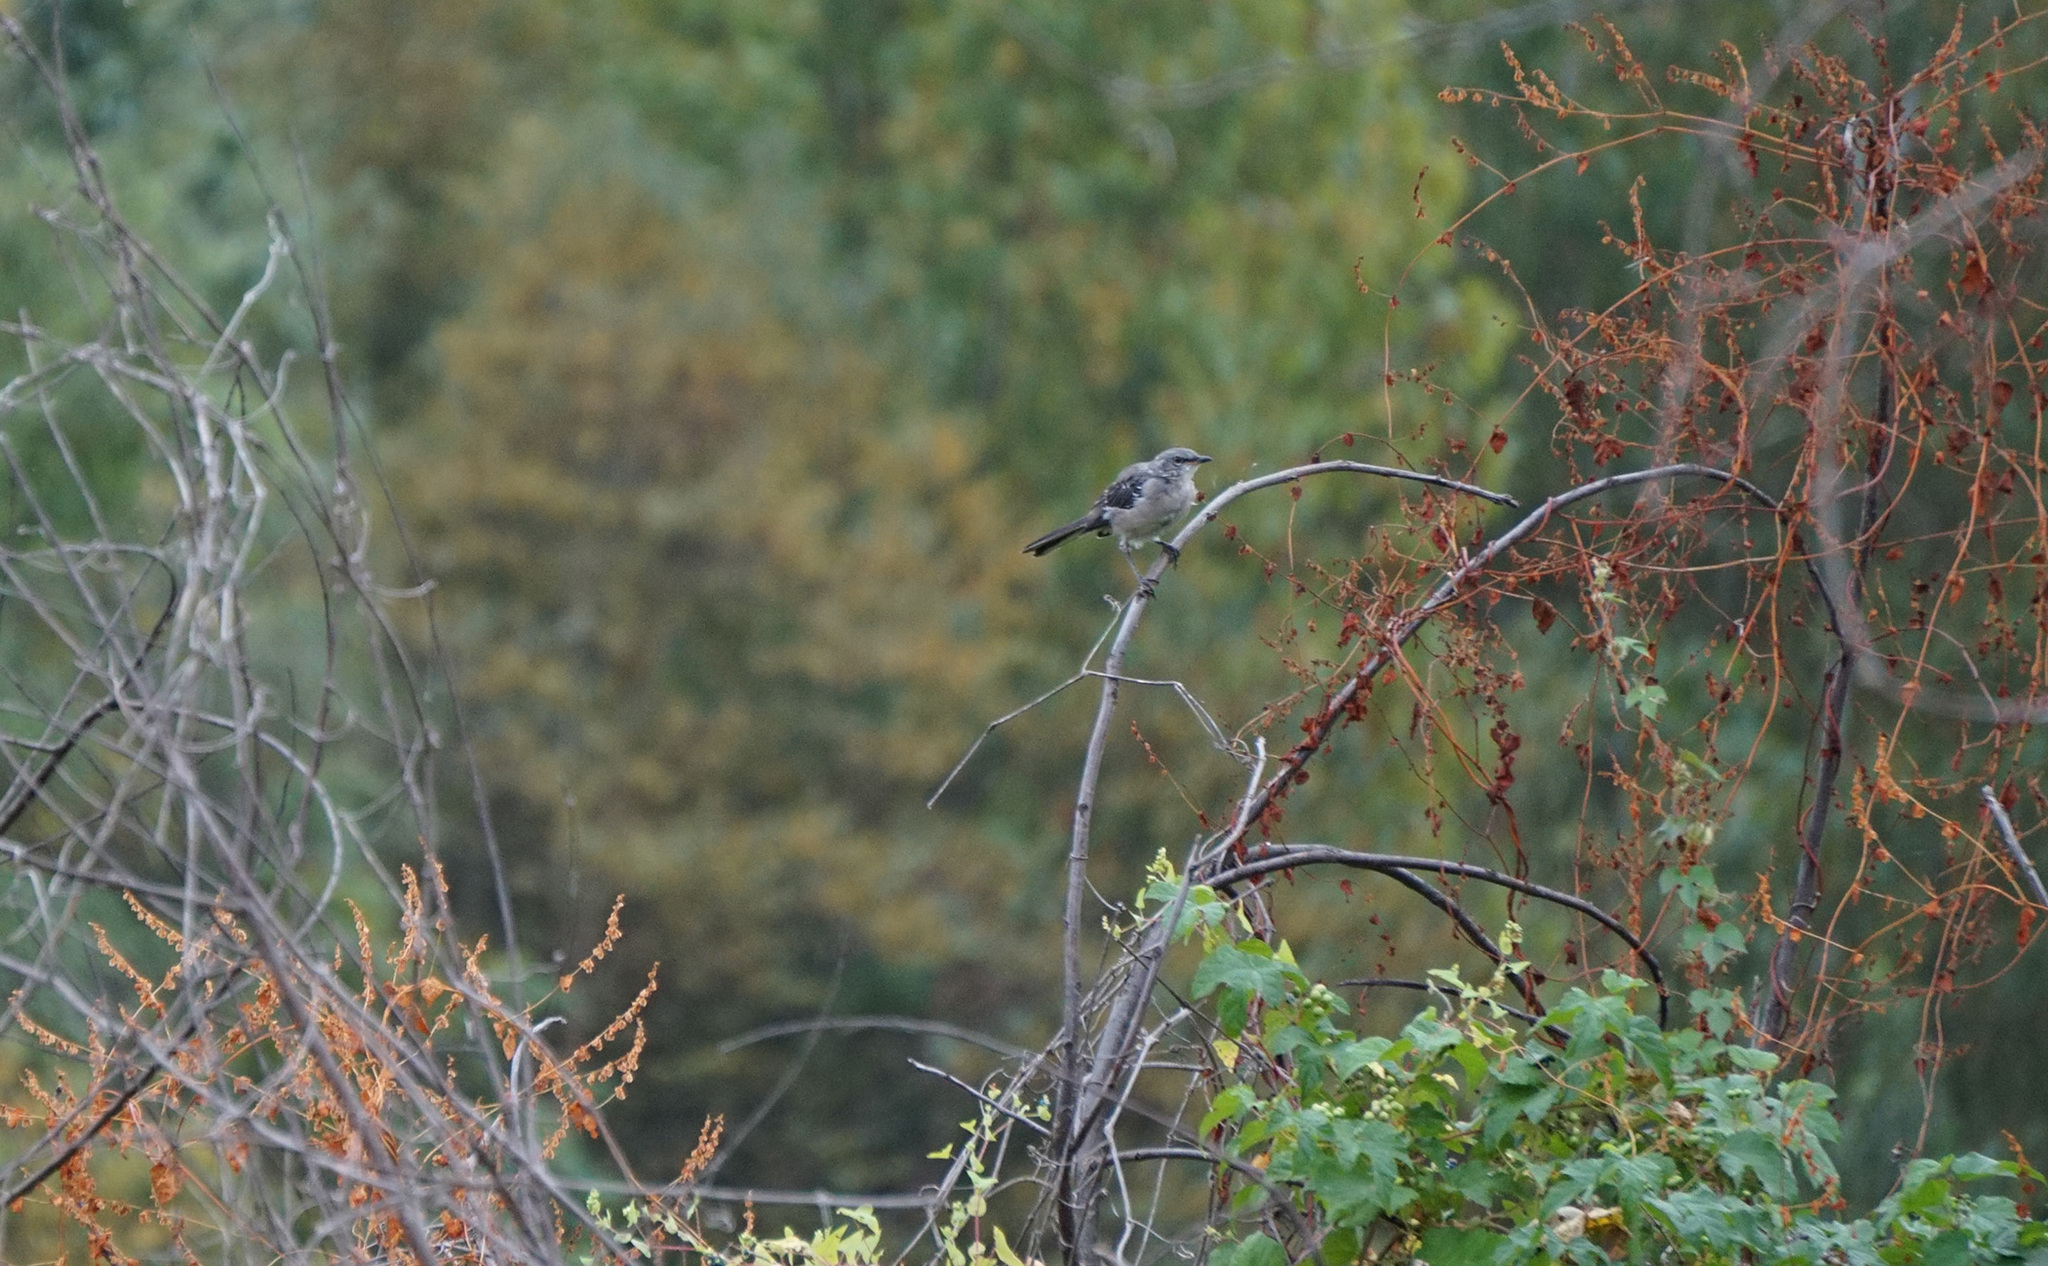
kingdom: Animalia
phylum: Chordata
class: Aves
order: Passeriformes
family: Mimidae
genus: Mimus
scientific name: Mimus polyglottos
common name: Northern mockingbird
